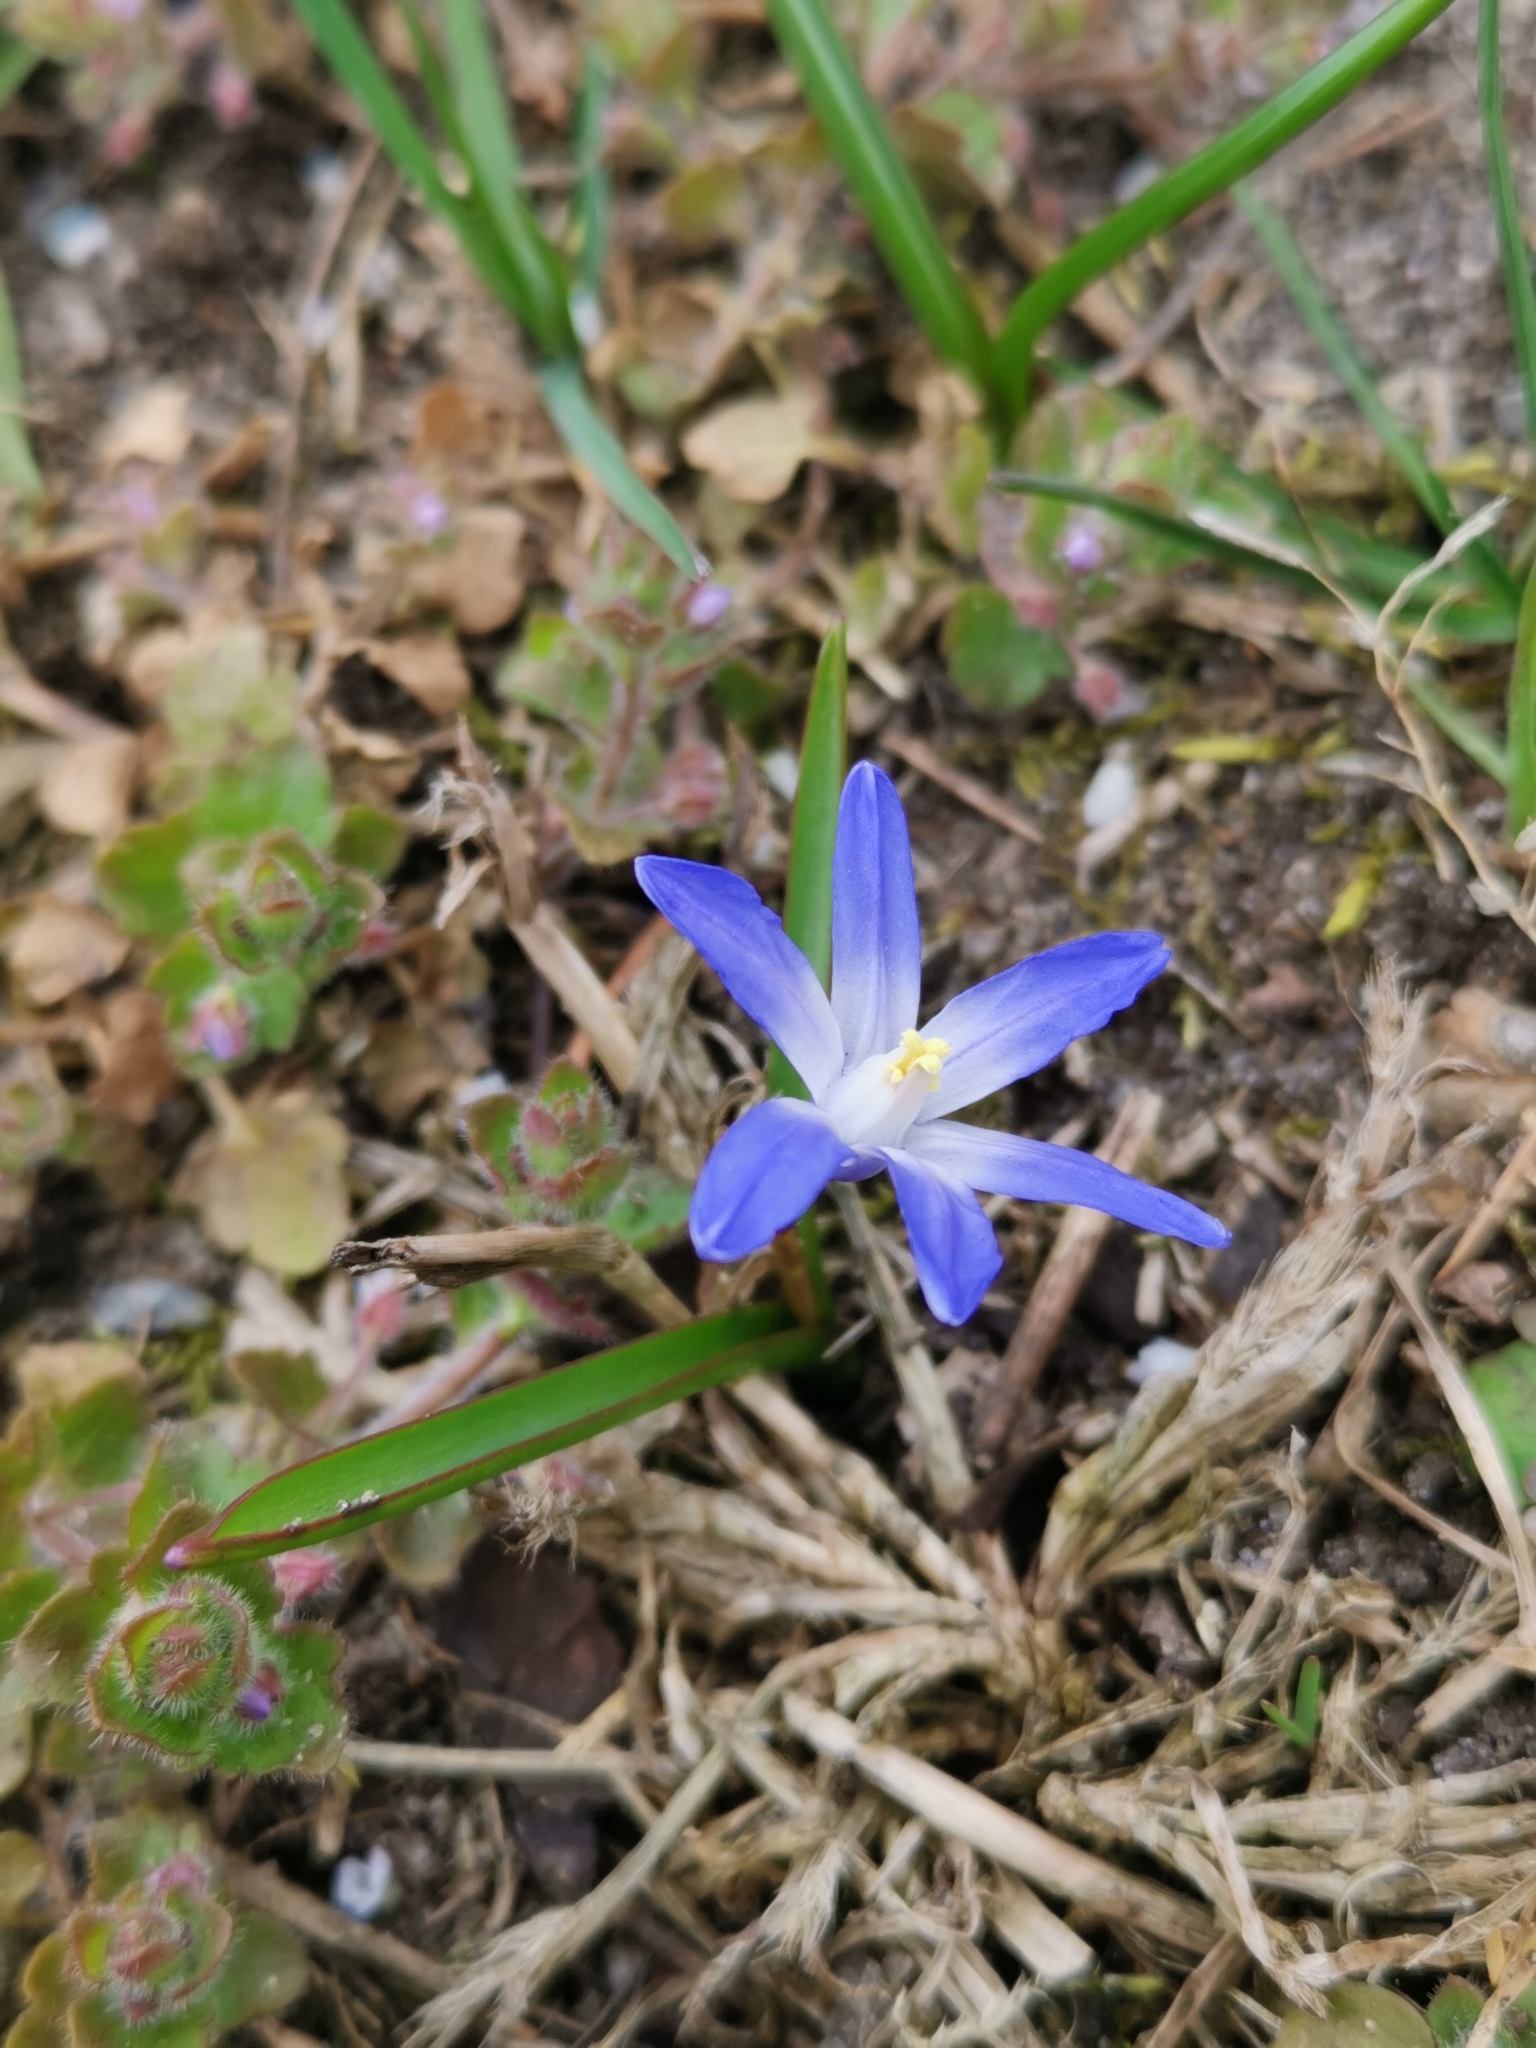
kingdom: Plantae
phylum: Tracheophyta
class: Liliopsida
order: Asparagales
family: Asparagaceae
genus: Scilla
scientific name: Scilla forbesii
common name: Glory-of-the-snow
